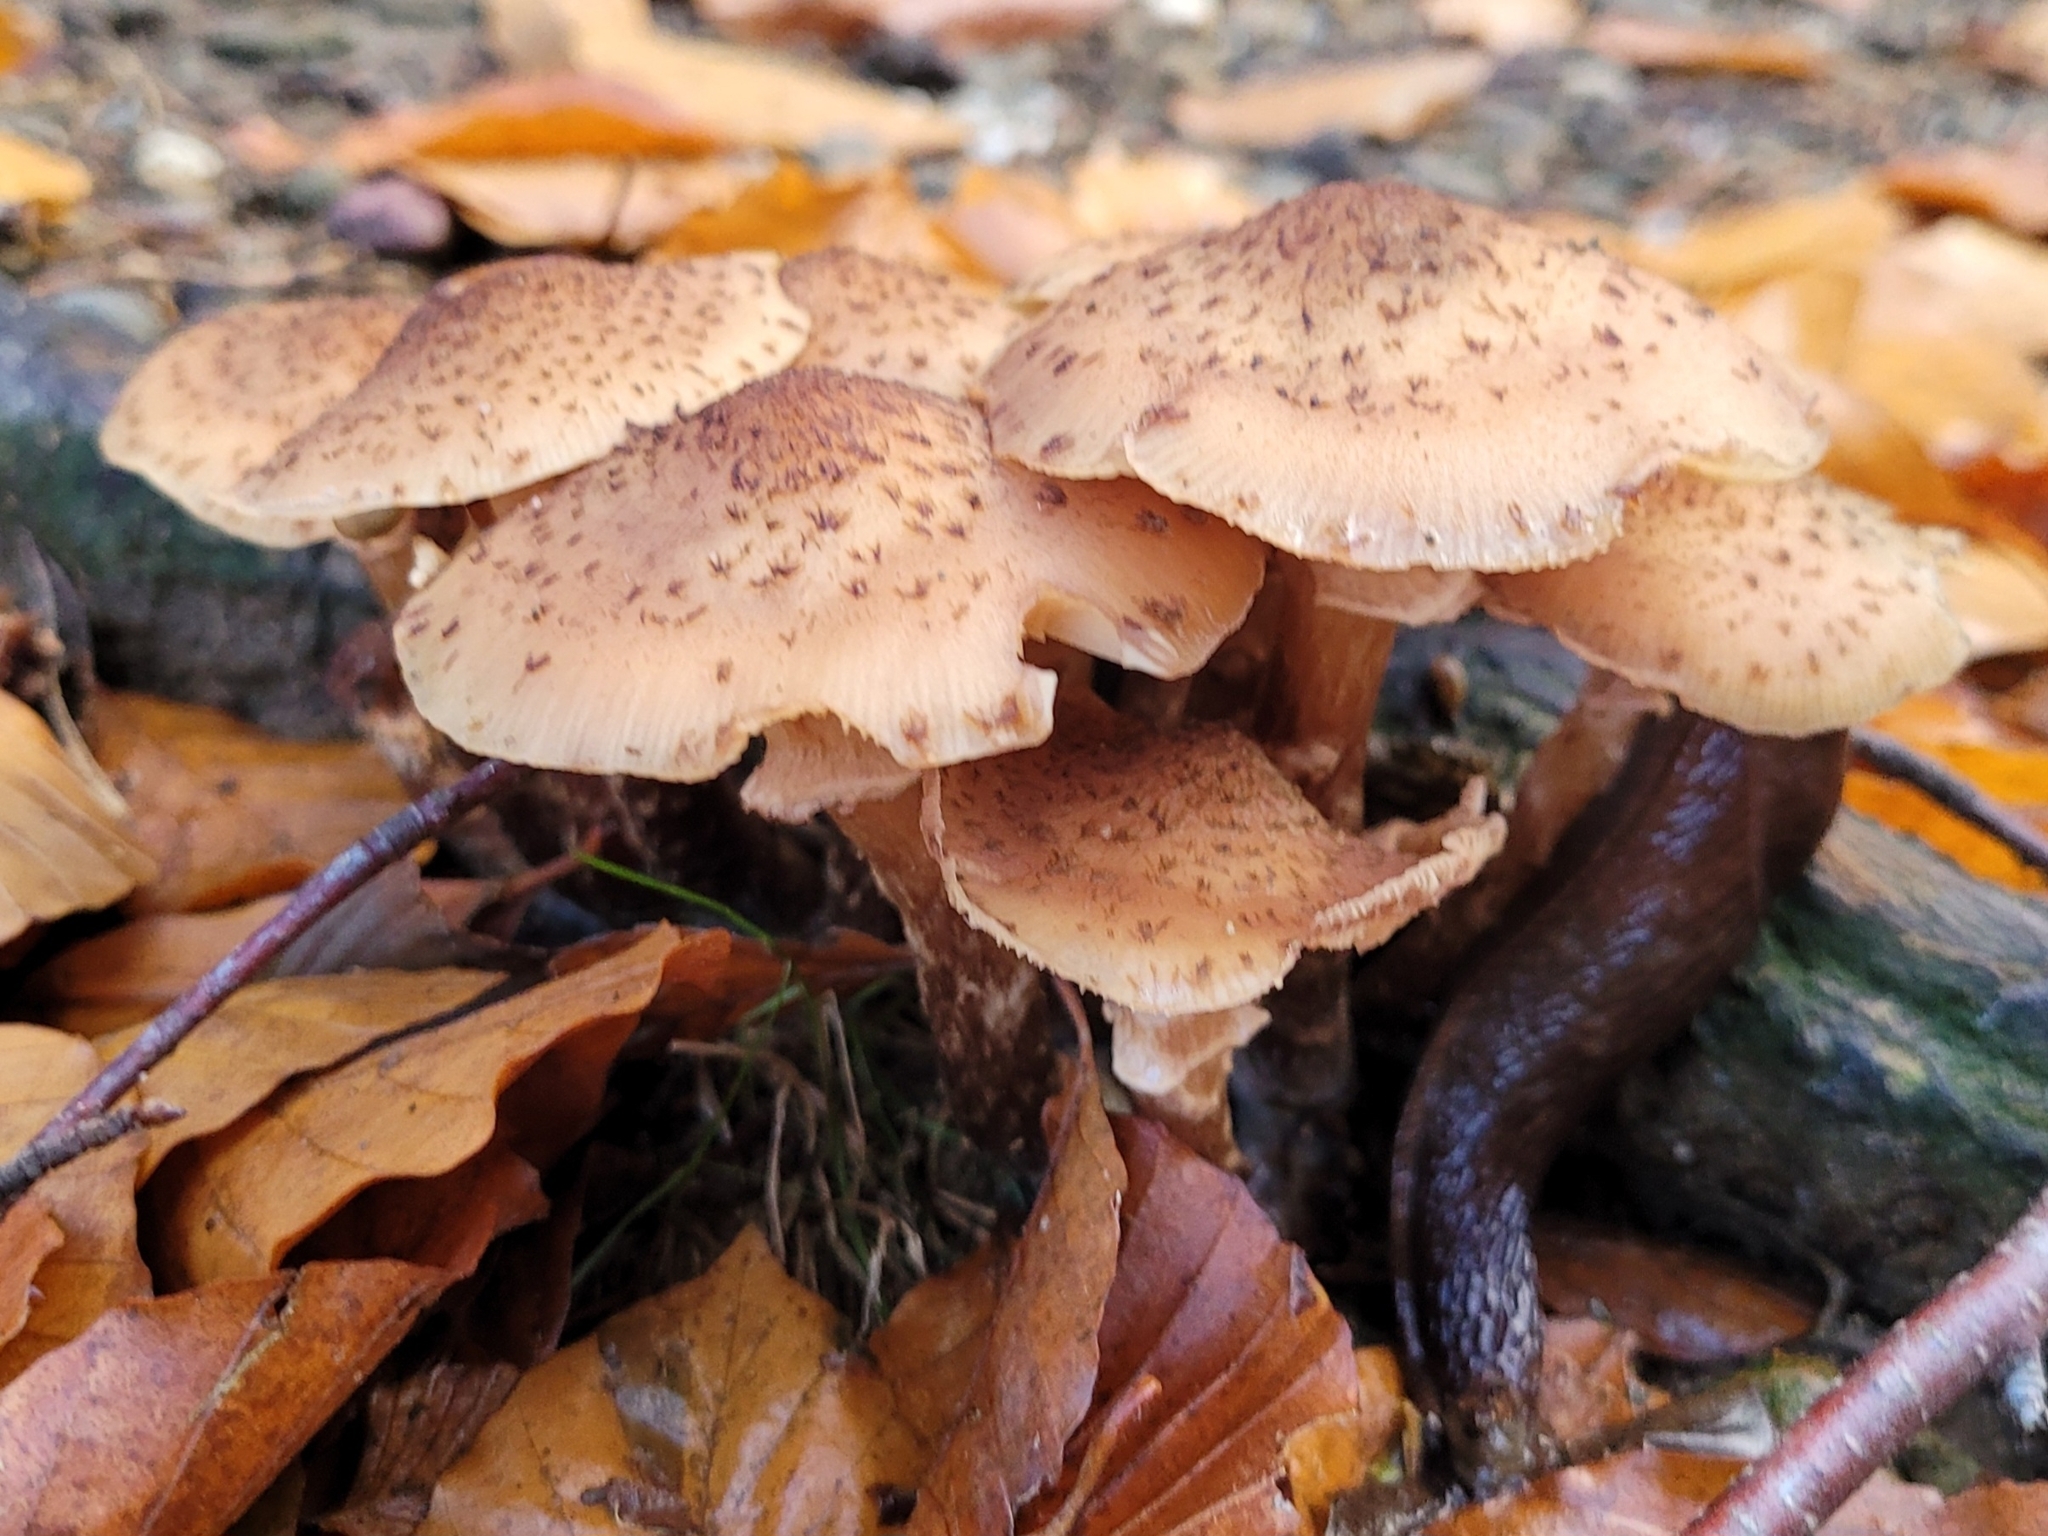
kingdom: Fungi
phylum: Basidiomycota
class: Agaricomycetes
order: Agaricales
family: Physalacriaceae
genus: Armillaria
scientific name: Armillaria ostoyae
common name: Dark honey fungus
